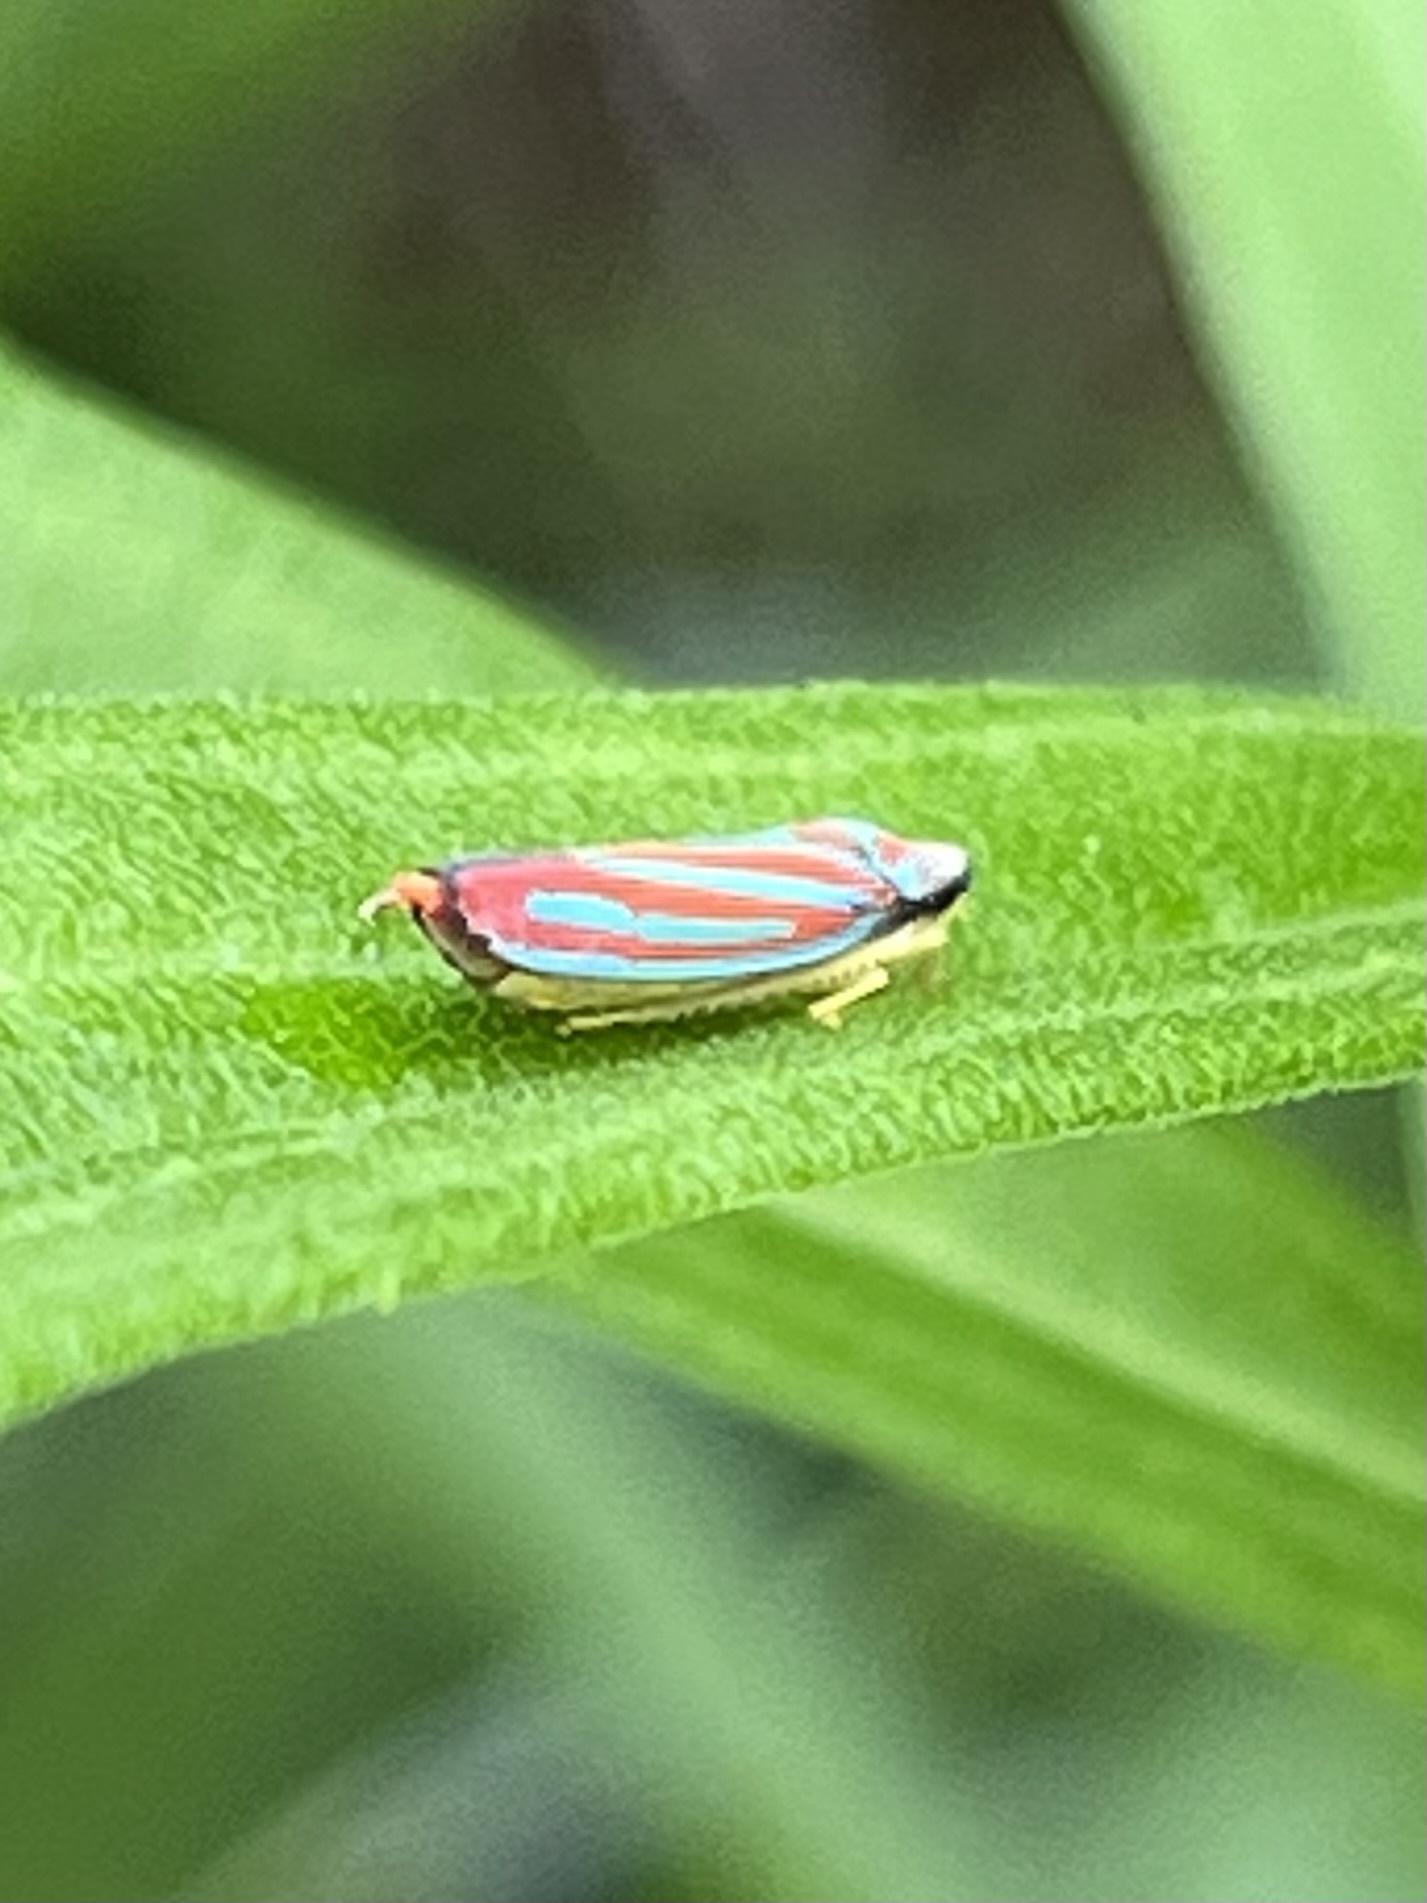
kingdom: Animalia
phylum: Arthropoda
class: Insecta
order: Hemiptera
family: Cicadellidae
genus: Graphocephala
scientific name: Graphocephala coccinea
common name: Candy-striped leafhopper
